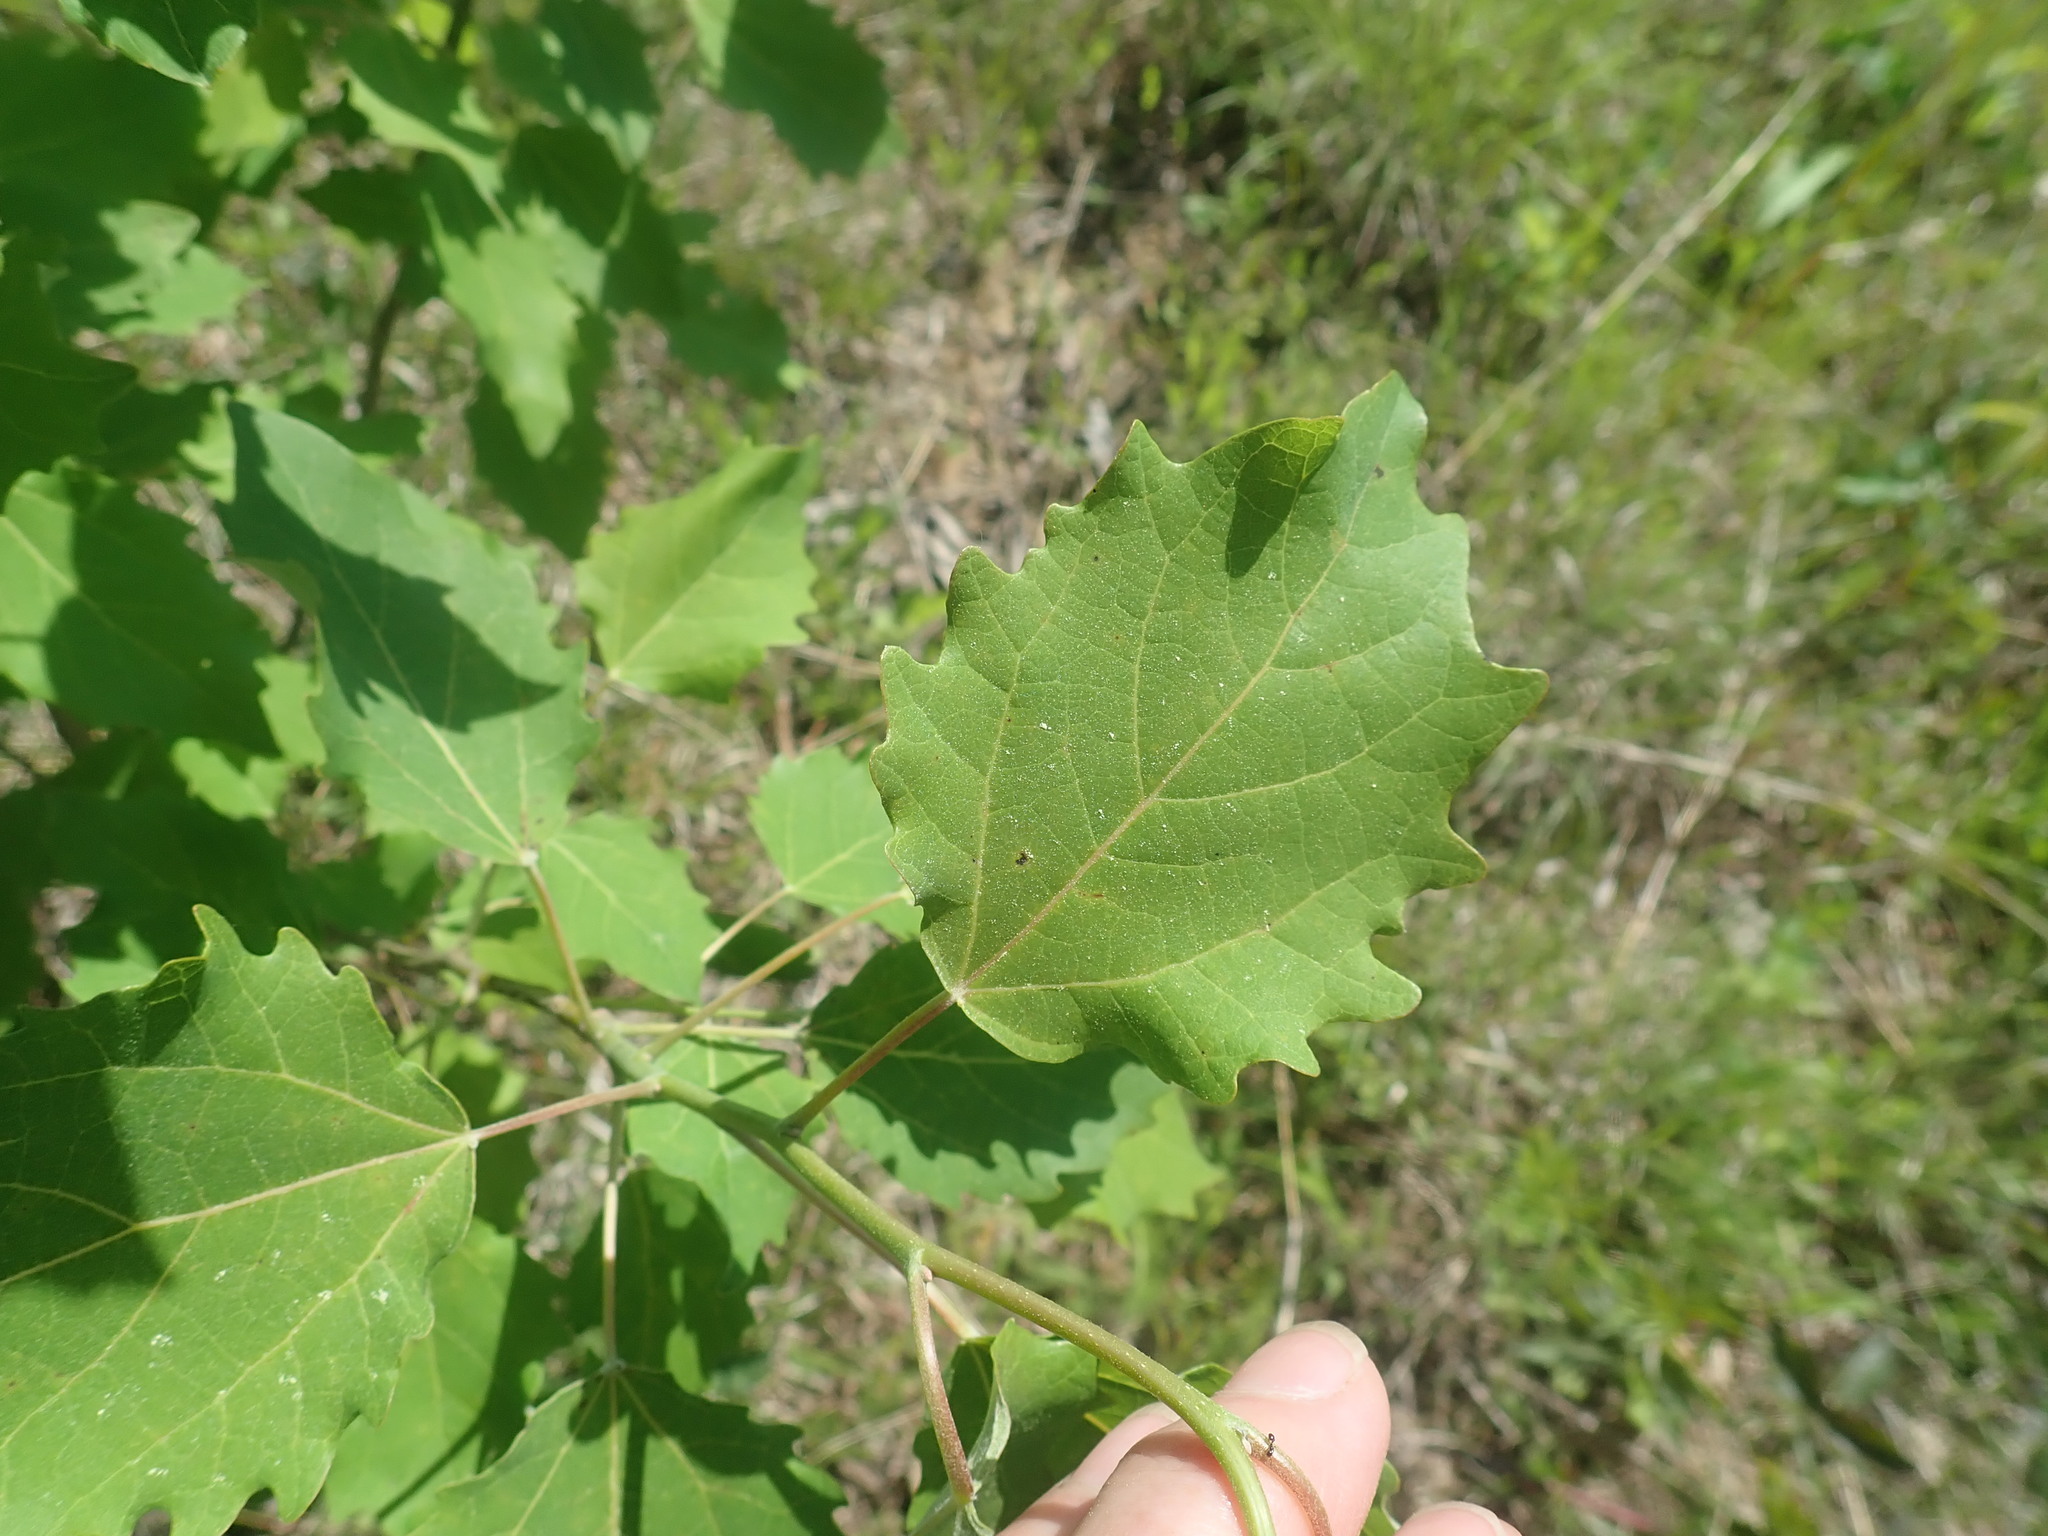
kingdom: Plantae
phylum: Tracheophyta
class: Magnoliopsida
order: Malpighiales
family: Salicaceae
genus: Populus
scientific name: Populus grandidentata
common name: Bigtooth aspen
